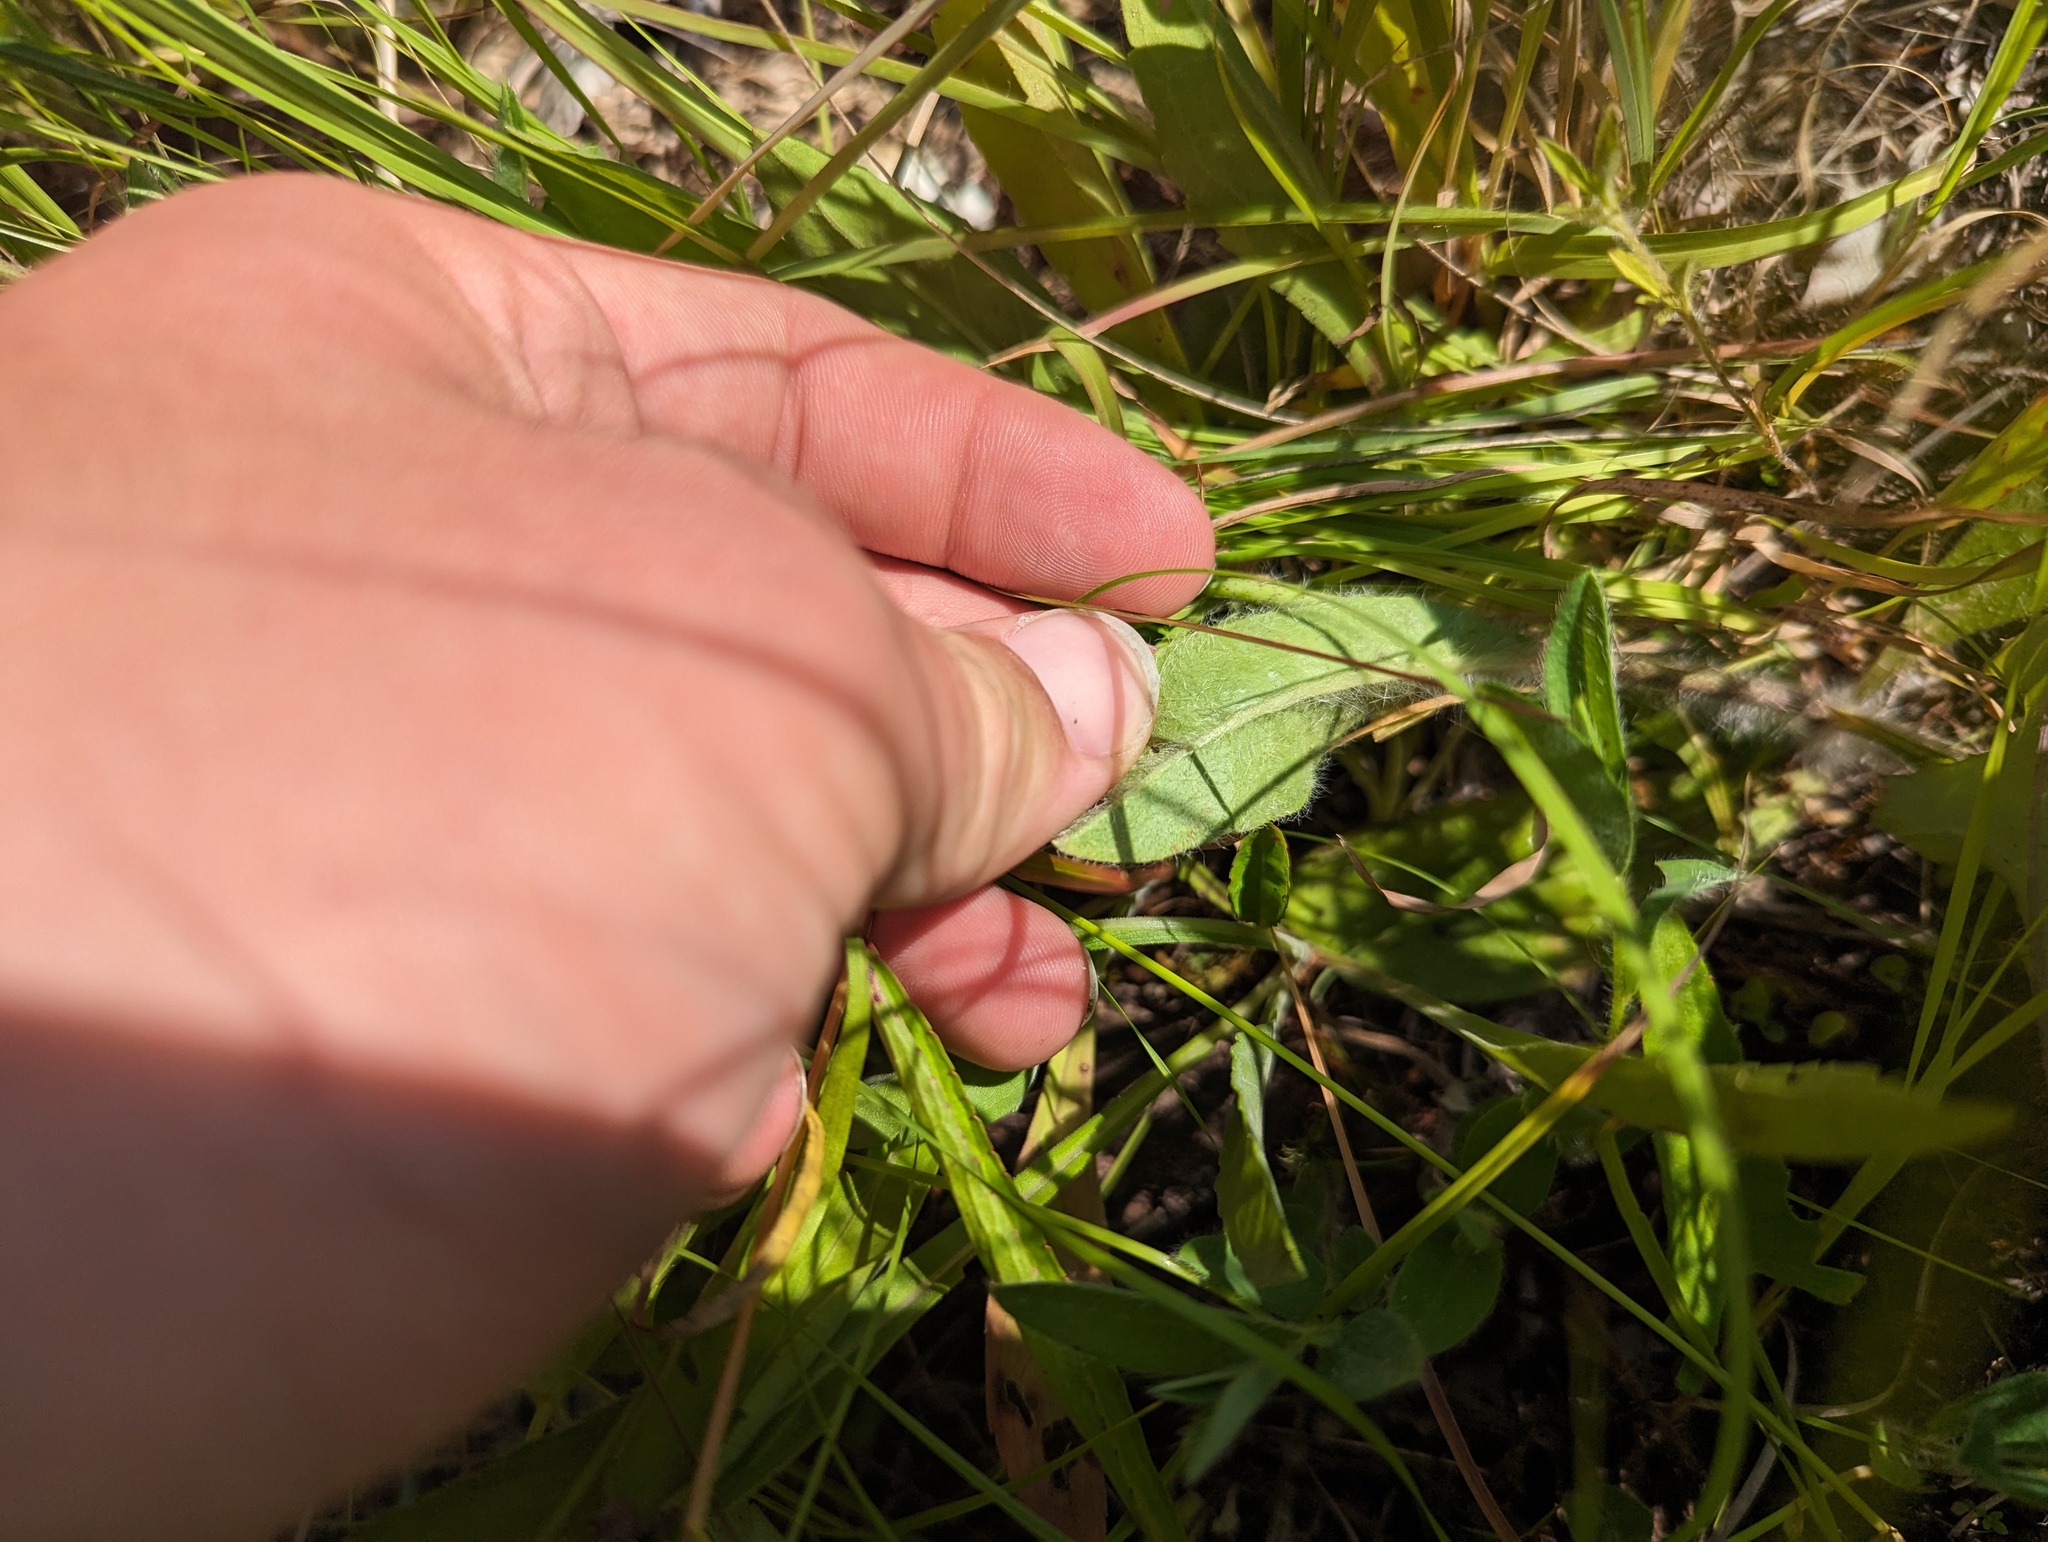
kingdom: Plantae
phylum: Tracheophyta
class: Magnoliopsida
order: Asterales
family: Asteraceae
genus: Hieracium
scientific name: Hieracium longipilum
